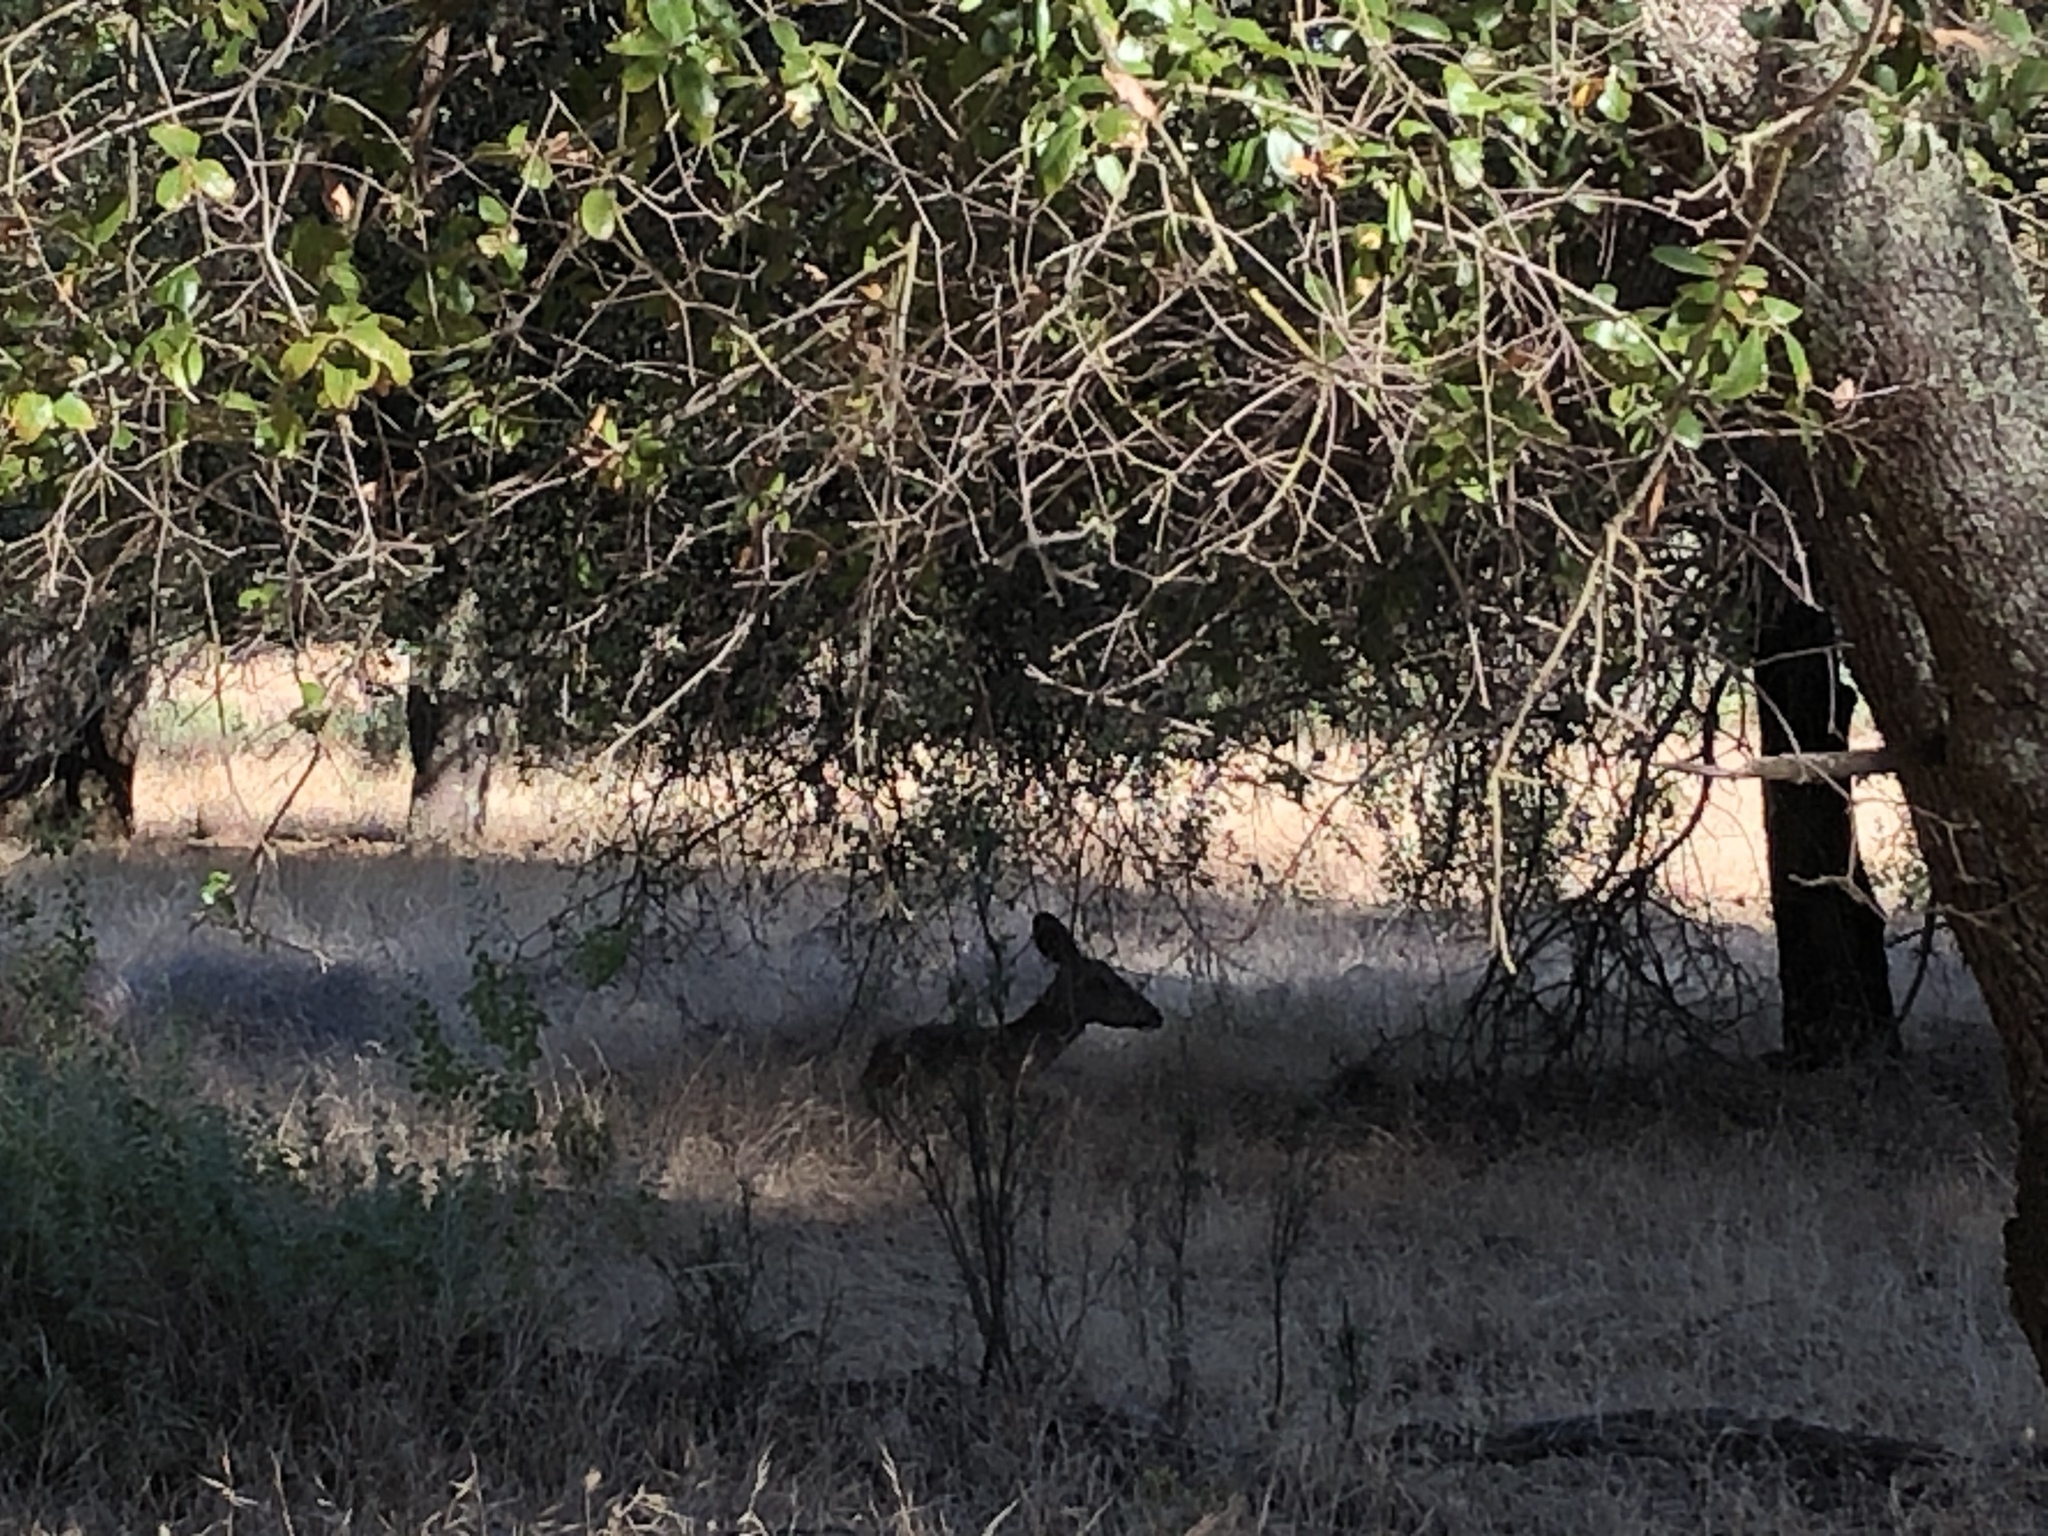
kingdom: Animalia
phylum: Chordata
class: Mammalia
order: Artiodactyla
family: Cervidae
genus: Odocoileus
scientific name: Odocoileus hemionus
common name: Mule deer
